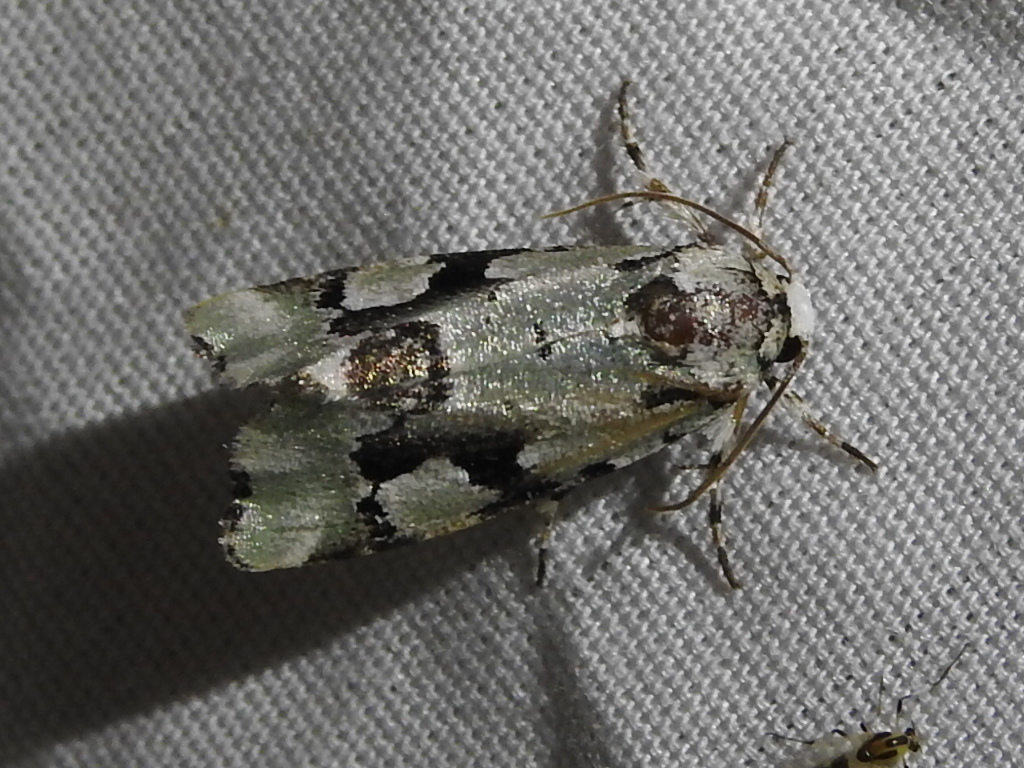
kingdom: Animalia
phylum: Arthropoda
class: Insecta
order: Lepidoptera
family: Noctuidae
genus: Emarginea
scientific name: Emarginea percara
